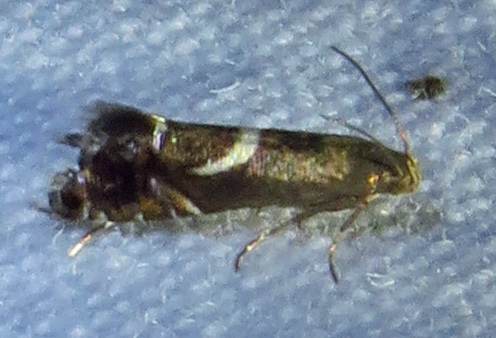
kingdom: Animalia
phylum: Arthropoda
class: Insecta
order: Lepidoptera
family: Glyphipterigidae
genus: Glyphipterix
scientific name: Glyphipterix Diploschizia impigritella
